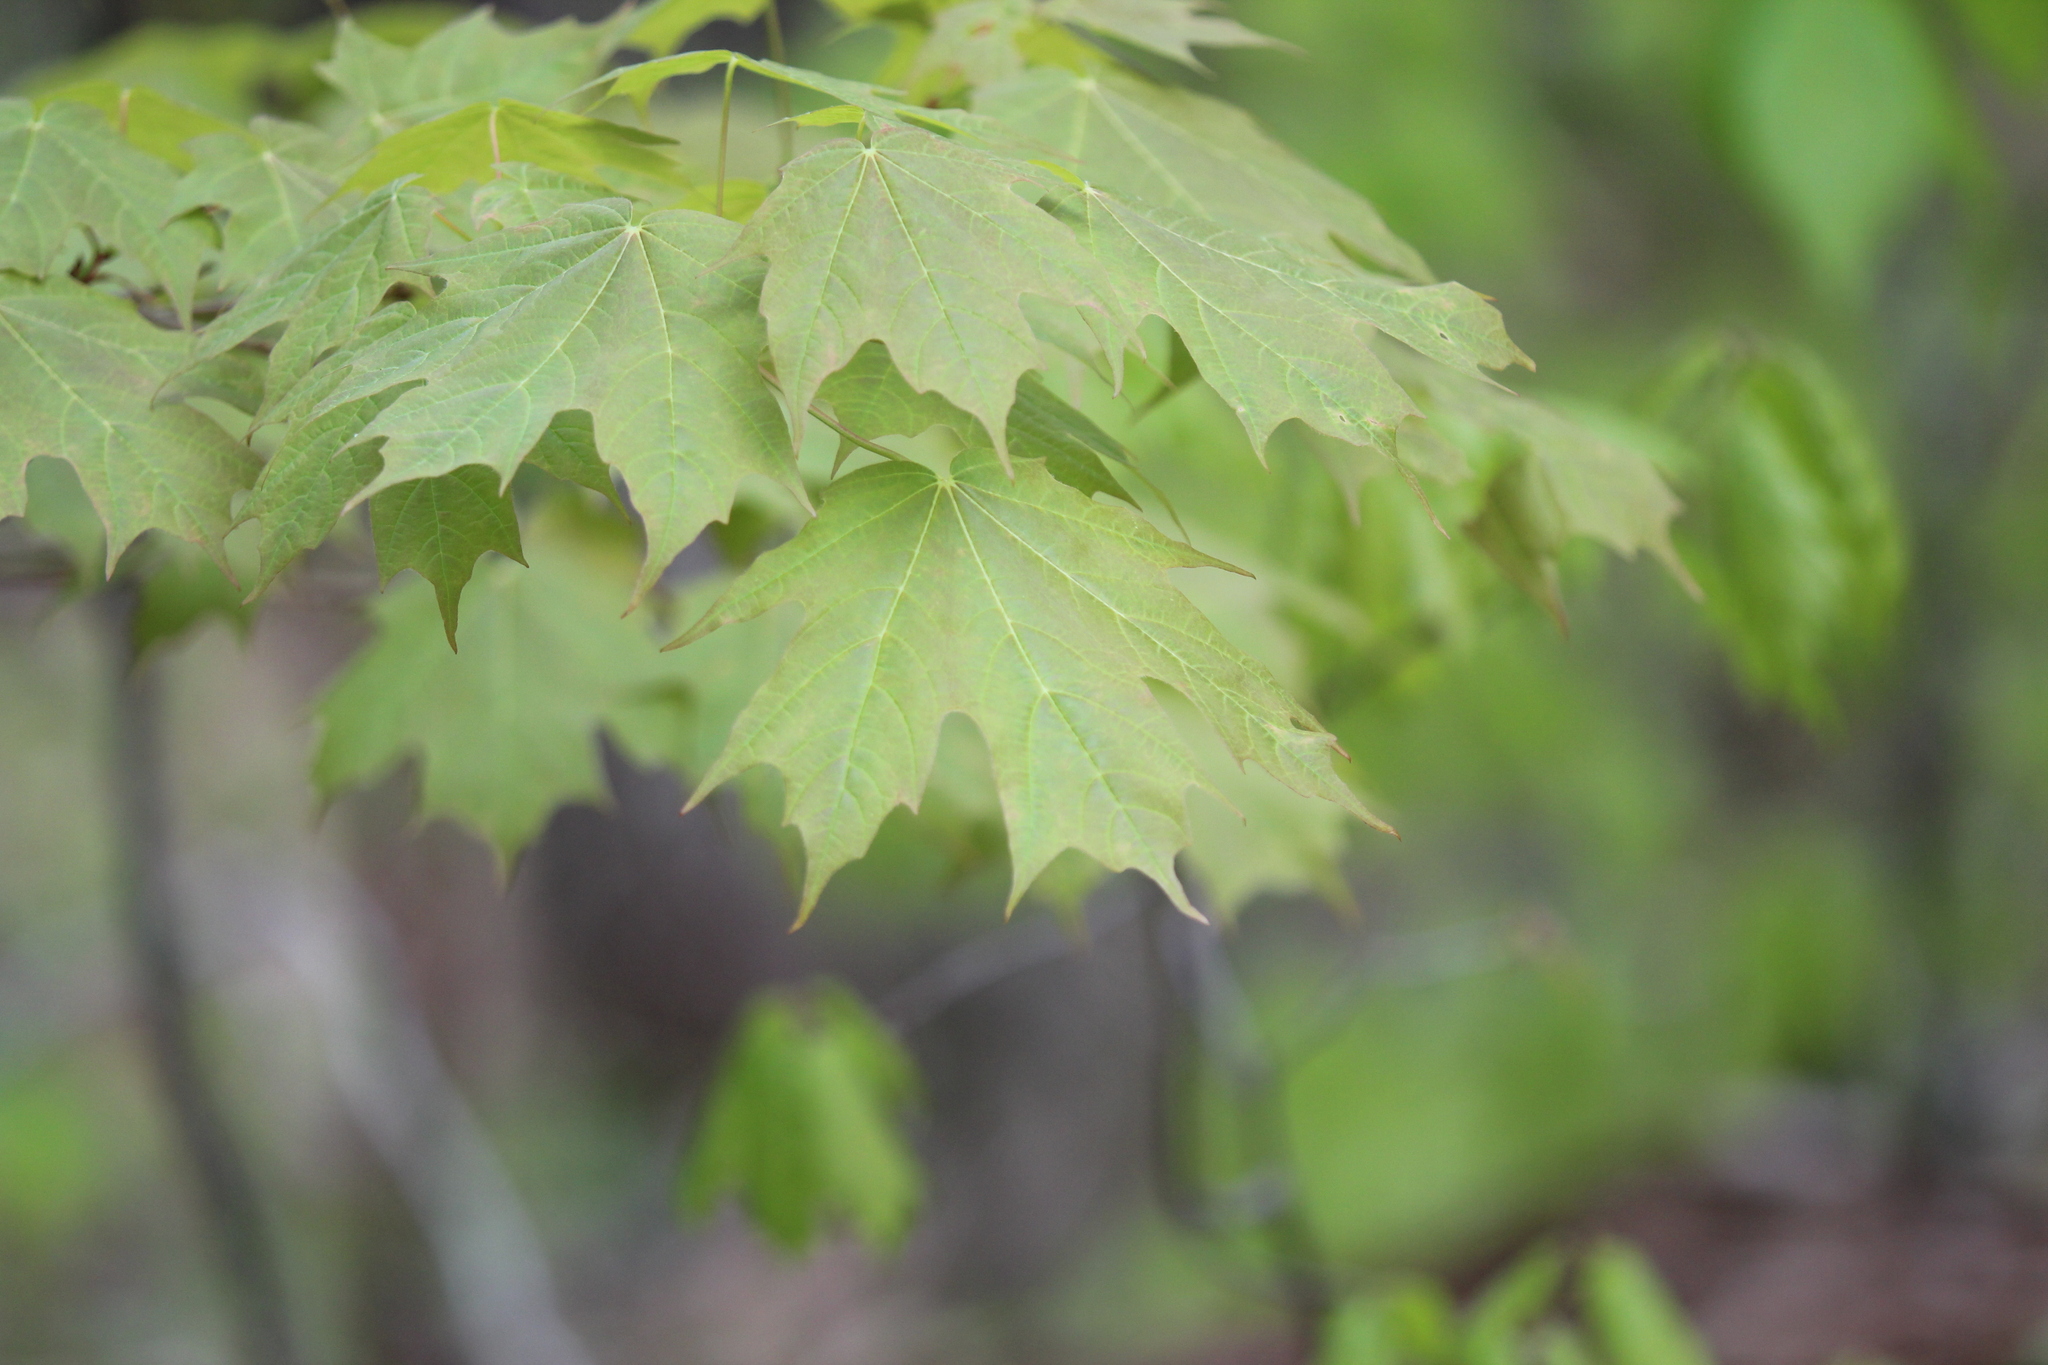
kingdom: Plantae
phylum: Tracheophyta
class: Magnoliopsida
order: Sapindales
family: Sapindaceae
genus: Acer
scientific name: Acer saccharum
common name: Sugar maple
